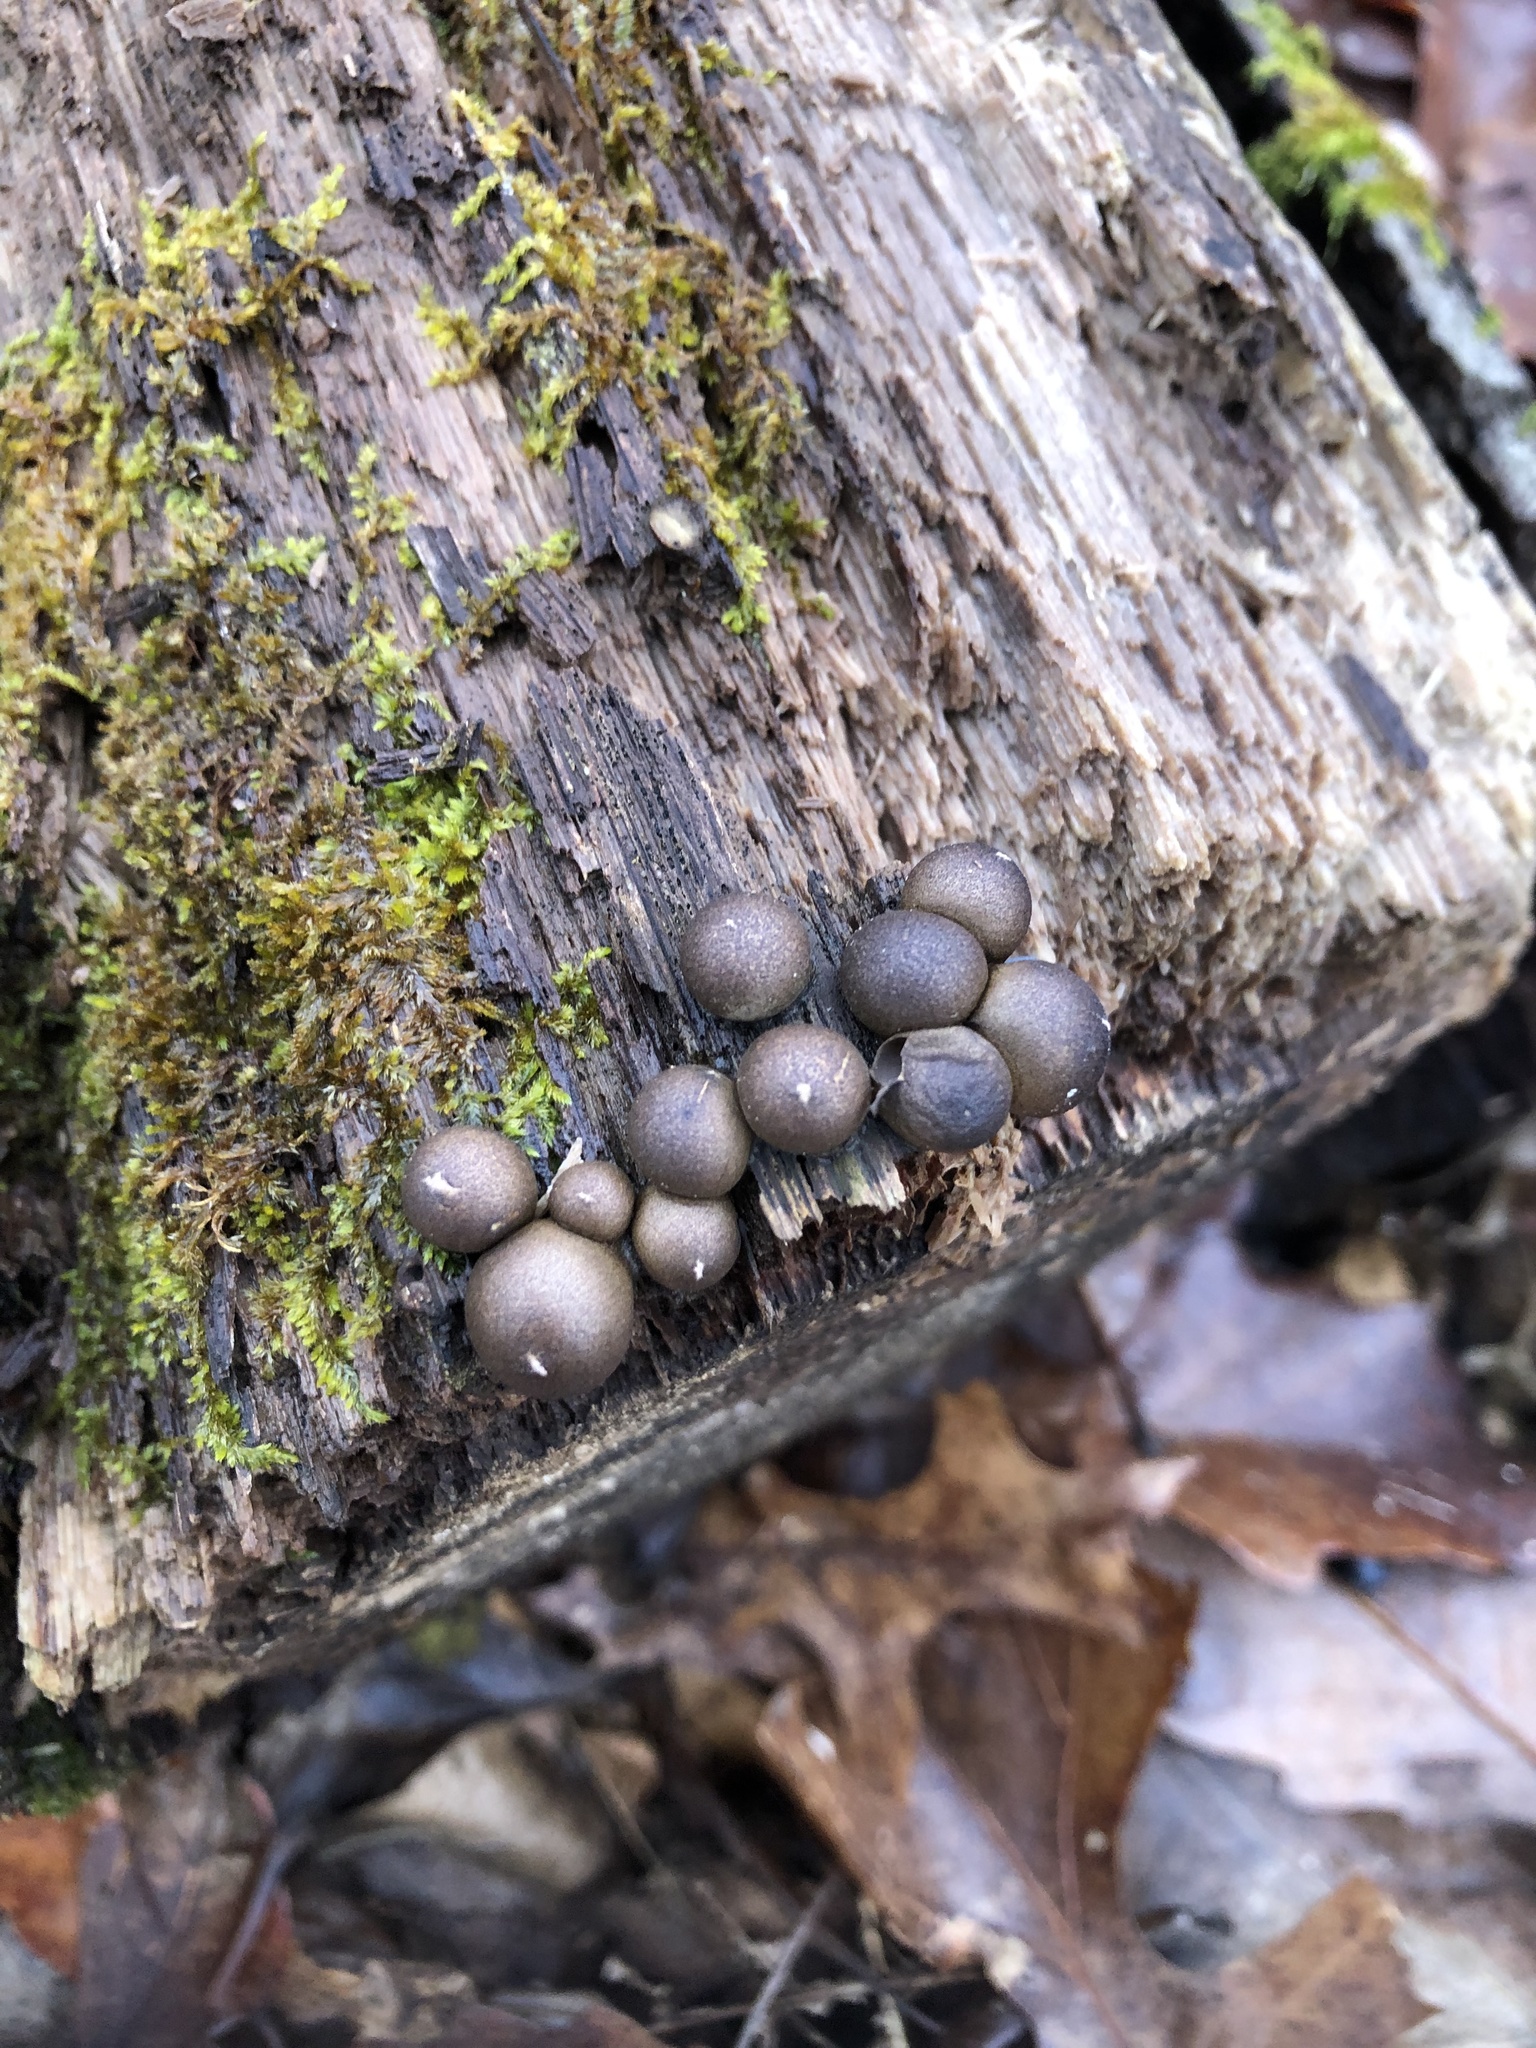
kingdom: Protozoa
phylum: Mycetozoa
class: Myxomycetes
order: Cribrariales
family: Tubiferaceae
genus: Lycogala
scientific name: Lycogala epidendrum
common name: Wolf's milk
